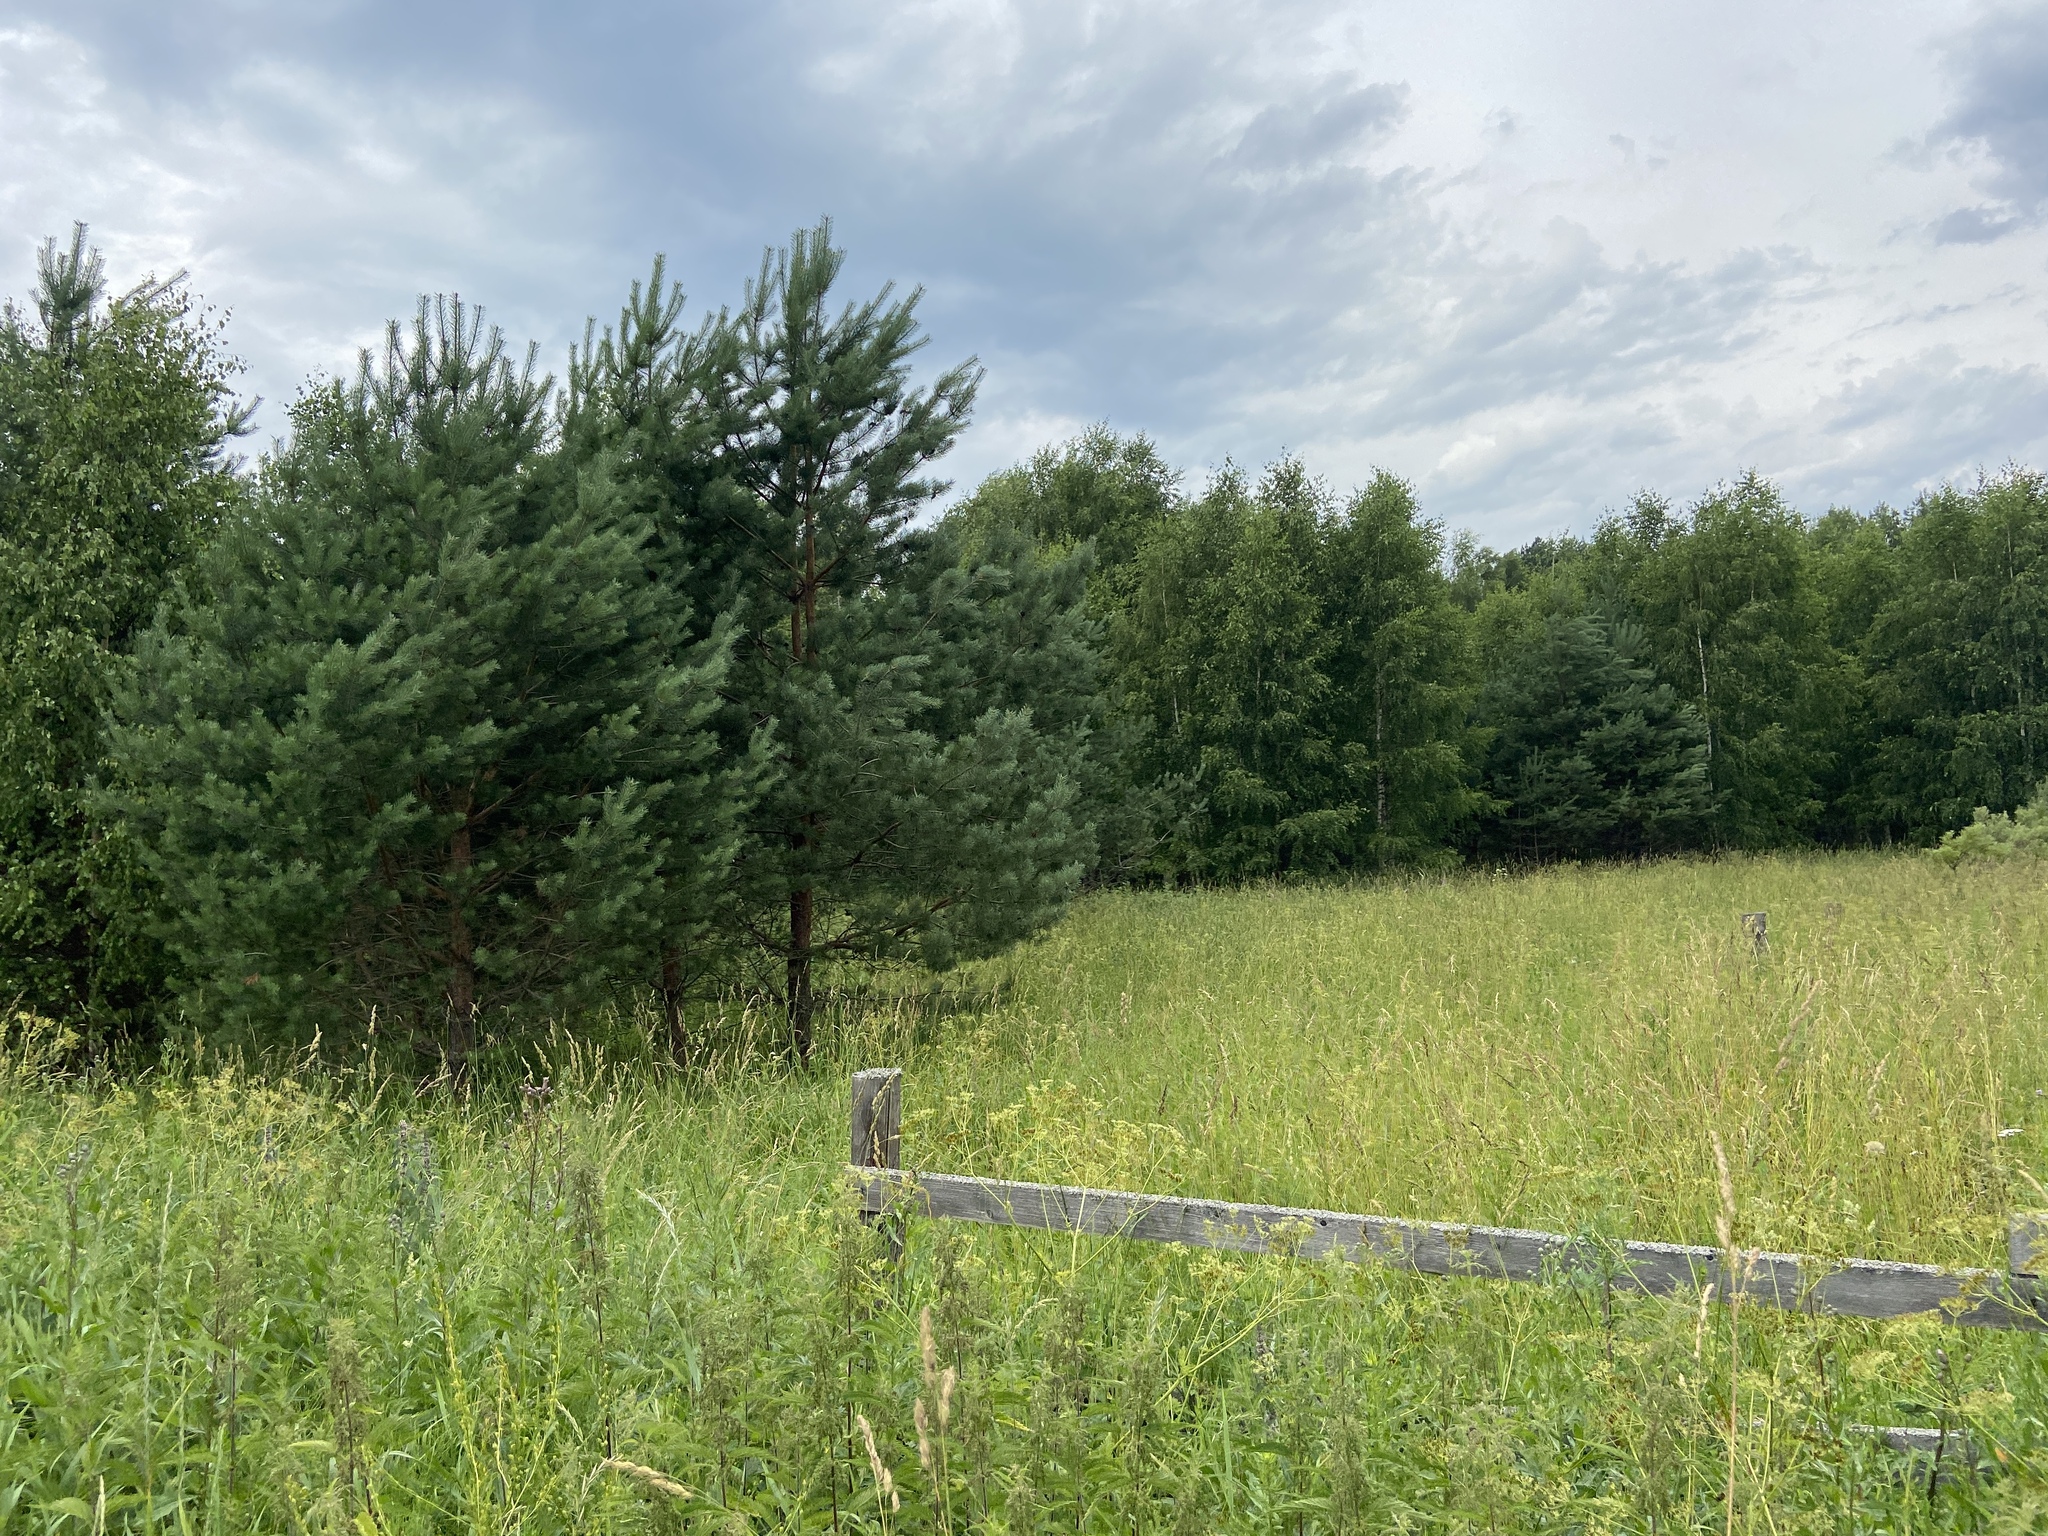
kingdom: Plantae
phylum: Tracheophyta
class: Pinopsida
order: Pinales
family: Pinaceae
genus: Pinus
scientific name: Pinus sylvestris
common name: Scots pine
